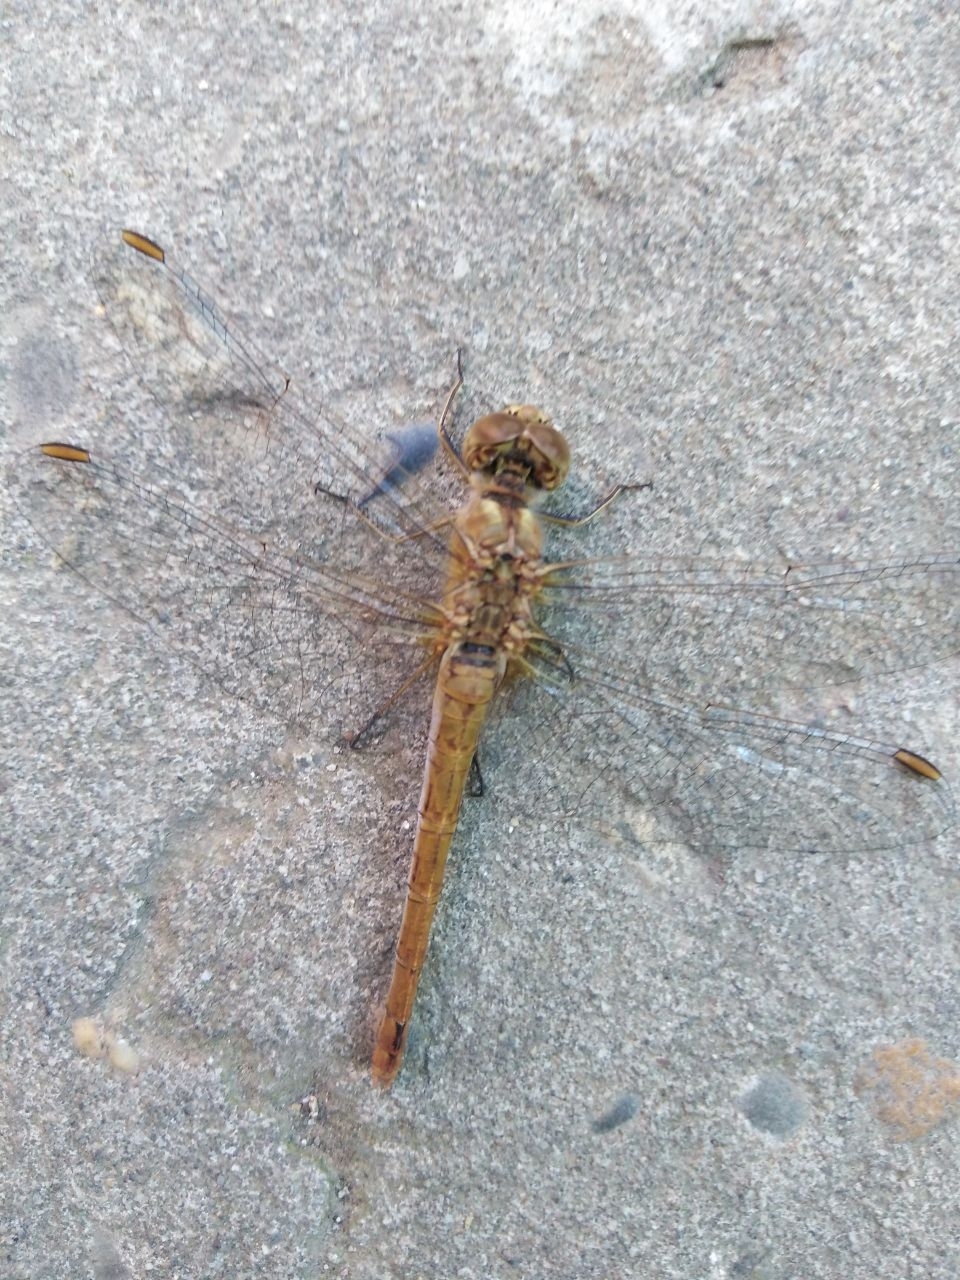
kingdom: Animalia
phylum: Arthropoda
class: Insecta
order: Odonata
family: Libellulidae
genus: Sympetrum
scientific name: Sympetrum meridionale
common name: Southern darter
